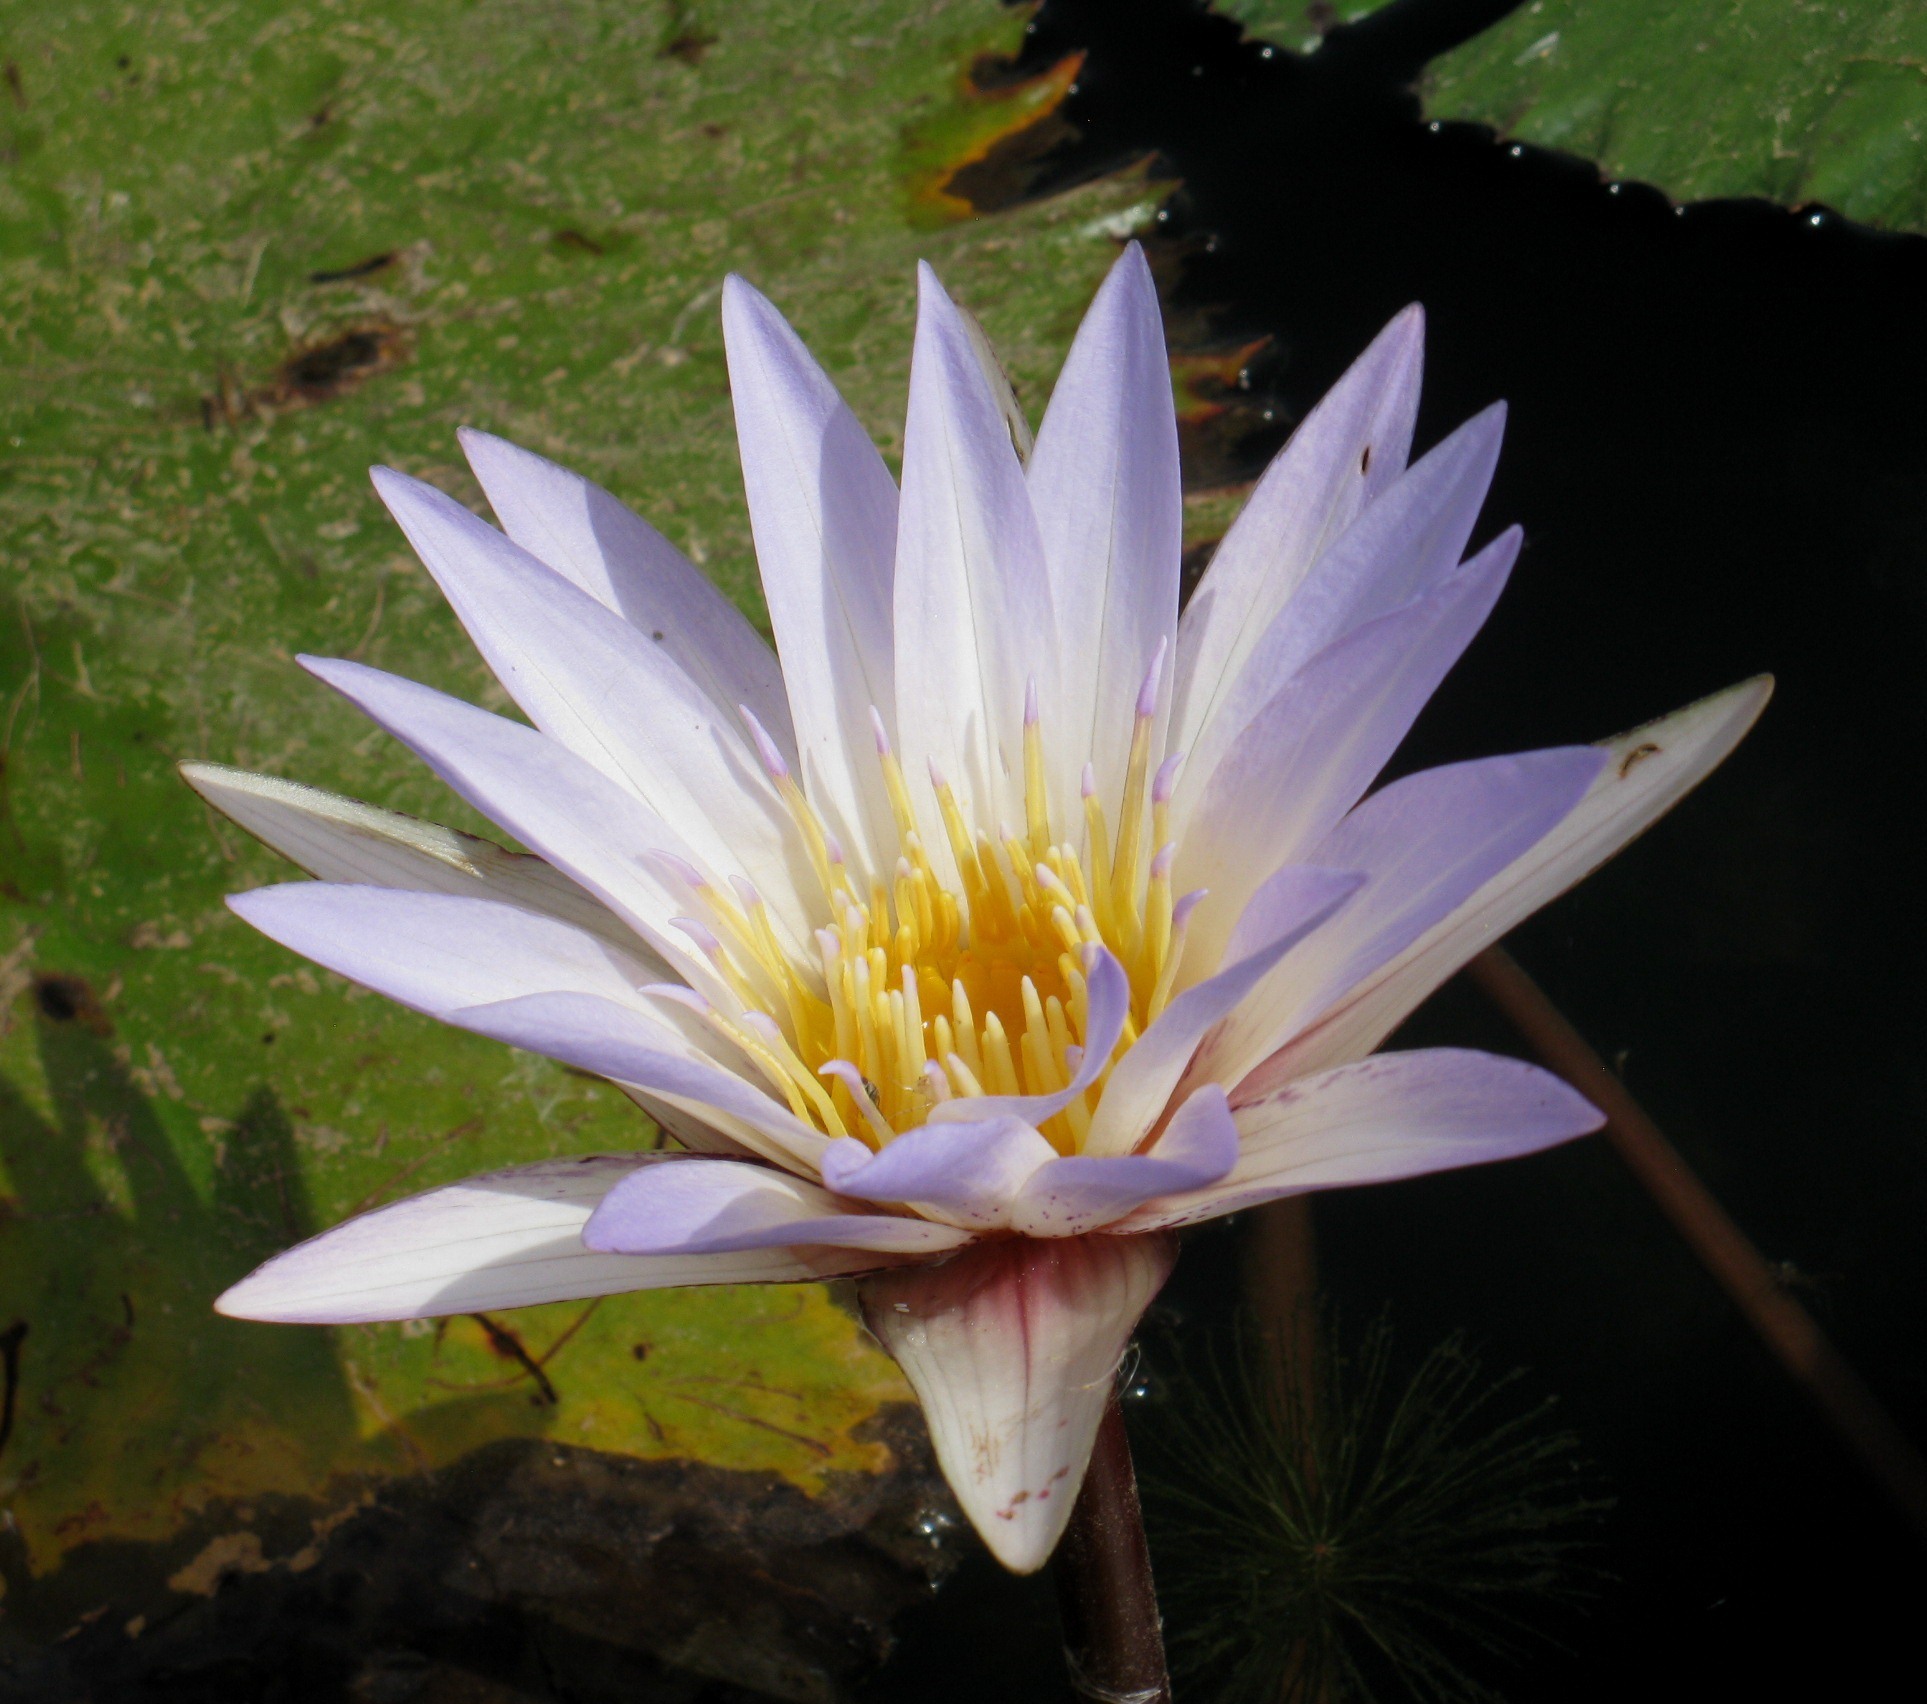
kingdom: Plantae
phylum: Tracheophyta
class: Magnoliopsida
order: Nymphaeales
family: Nymphaeaceae
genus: Nymphaea
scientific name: Nymphaea micrantha
